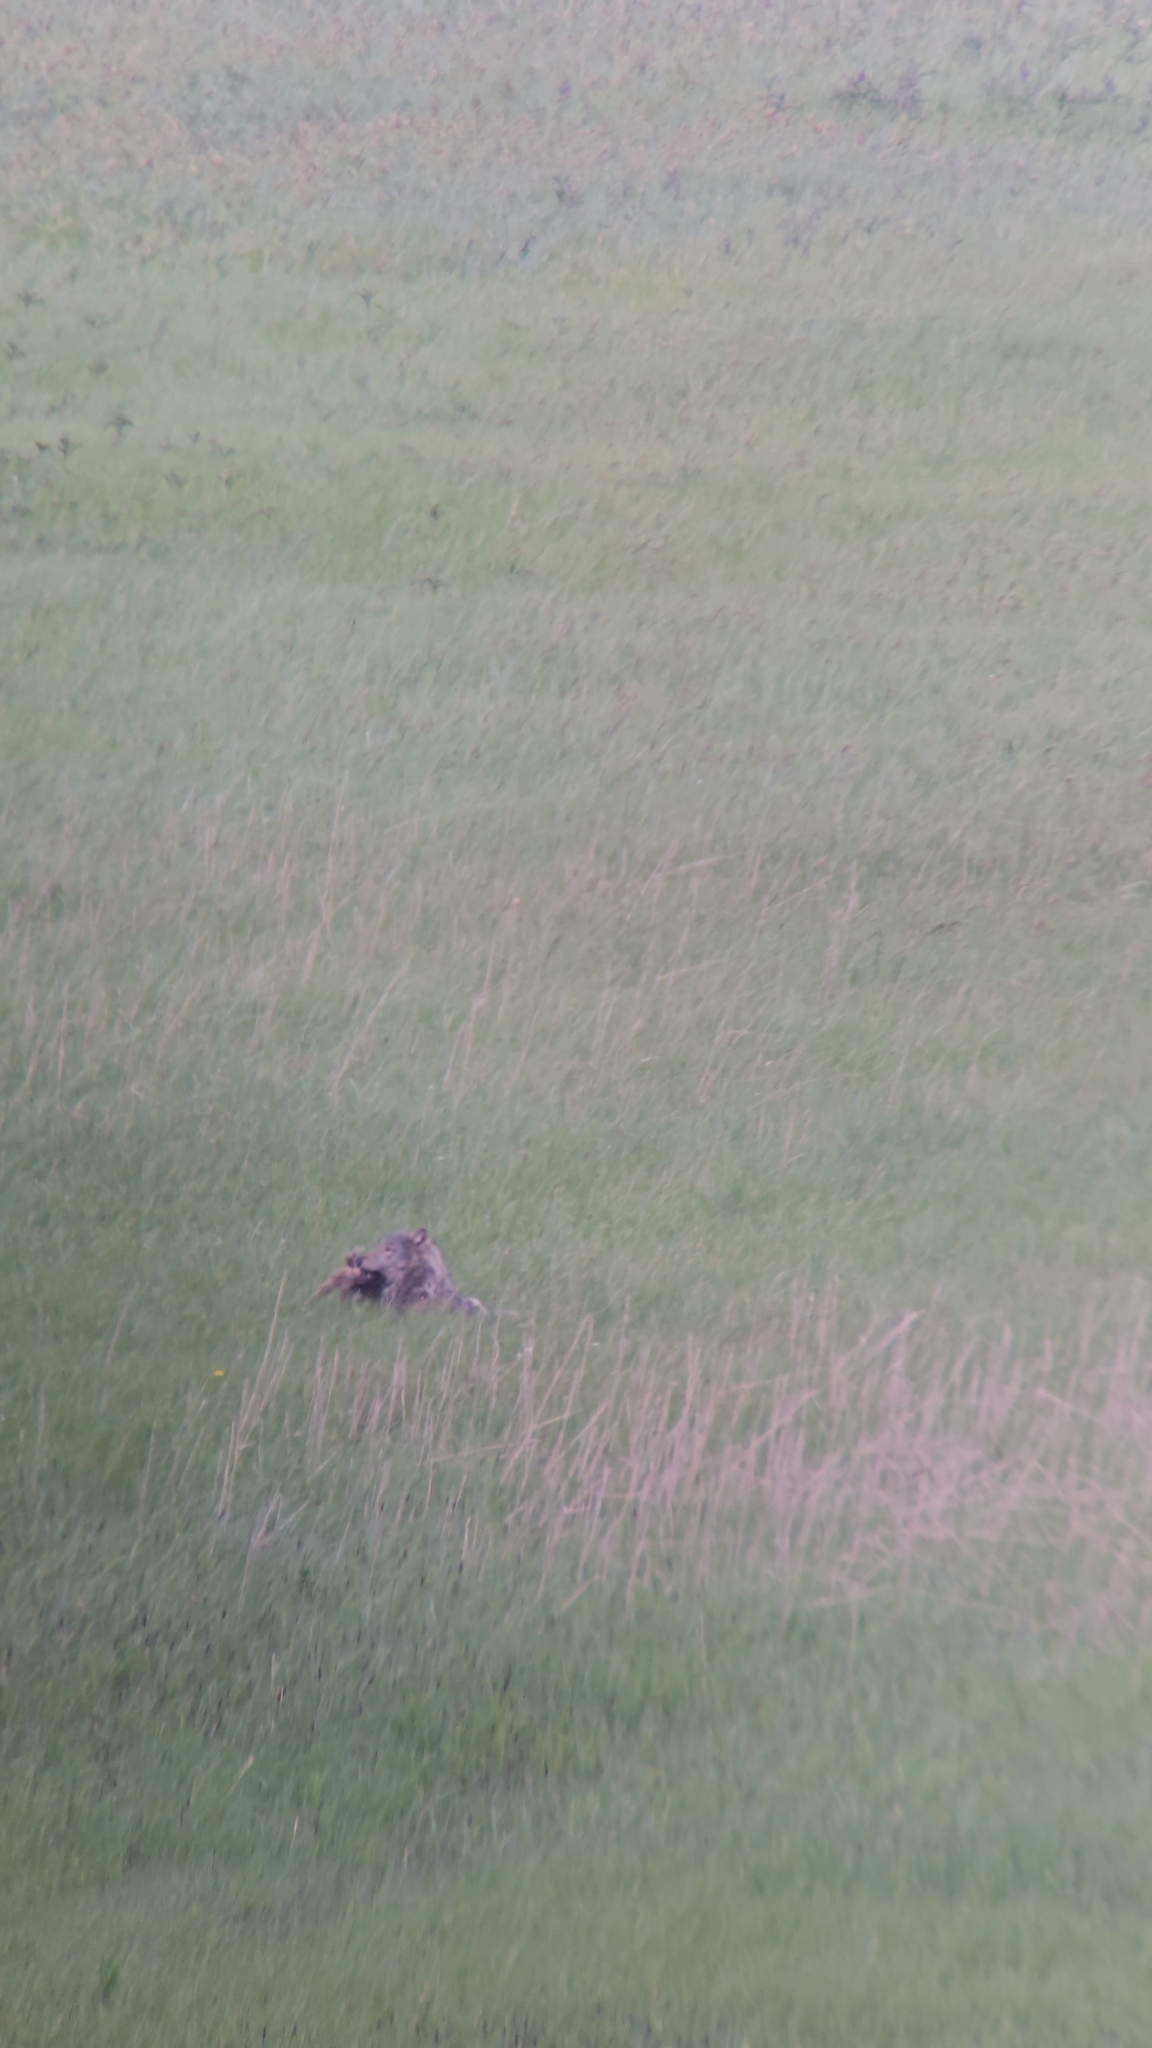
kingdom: Animalia
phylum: Chordata
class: Mammalia
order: Carnivora
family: Canidae
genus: Canis
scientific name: Canis lupus
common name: Gray wolf
